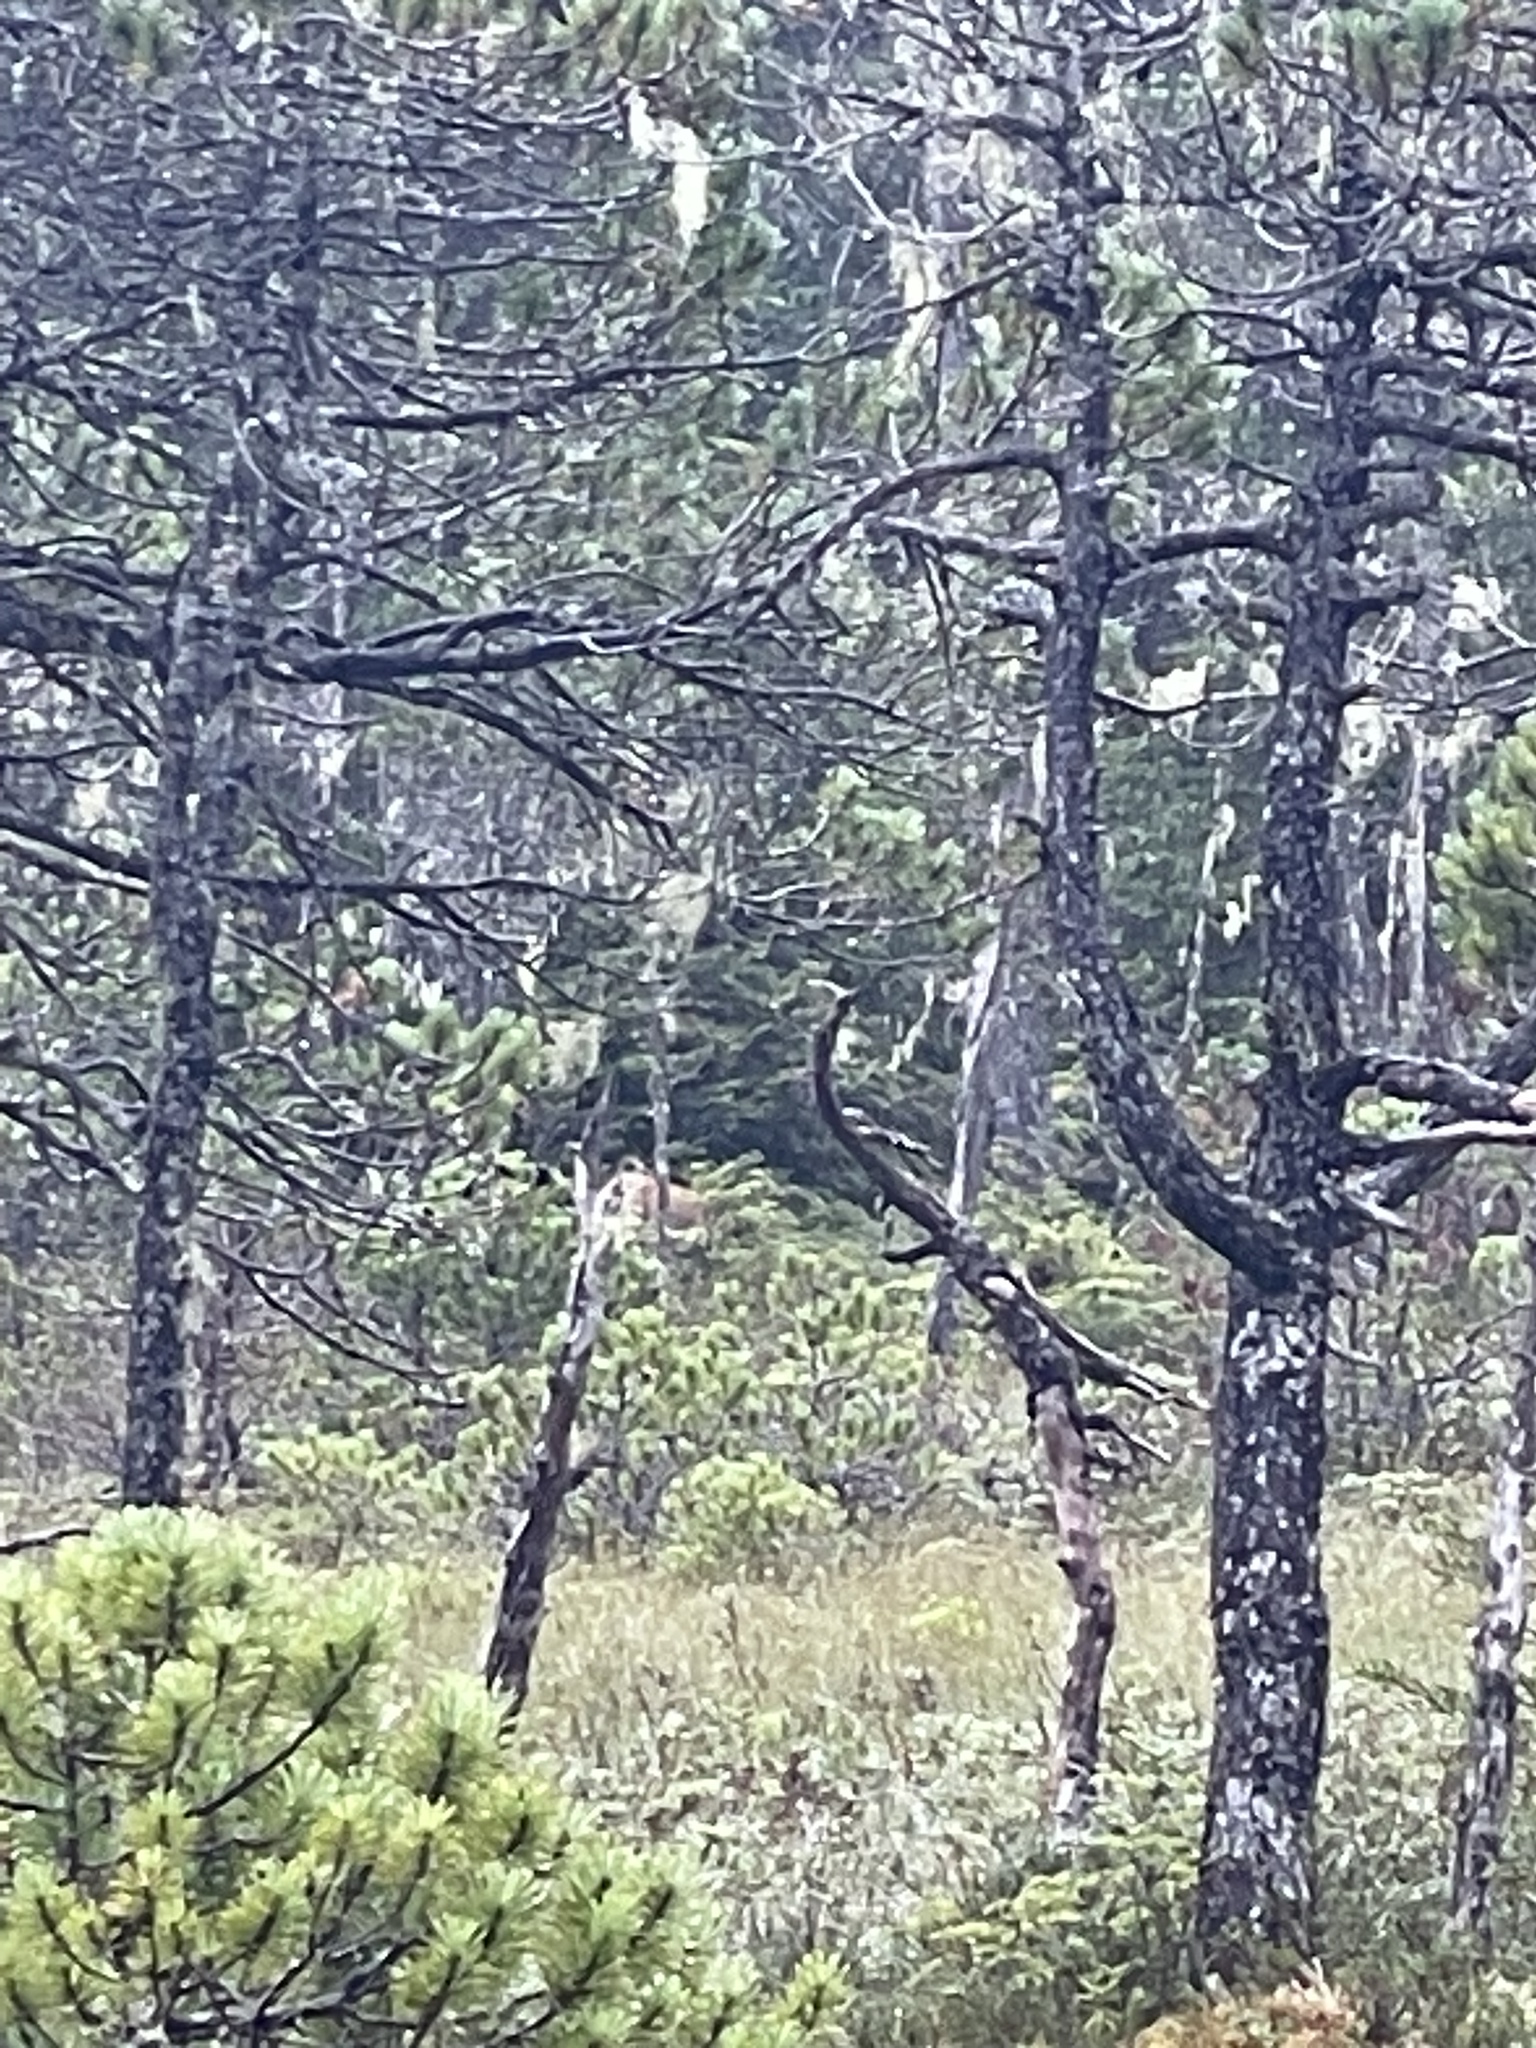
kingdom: Animalia
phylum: Chordata
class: Mammalia
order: Artiodactyla
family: Cervidae
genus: Odocoileus
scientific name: Odocoileus hemionus
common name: Mule deer
